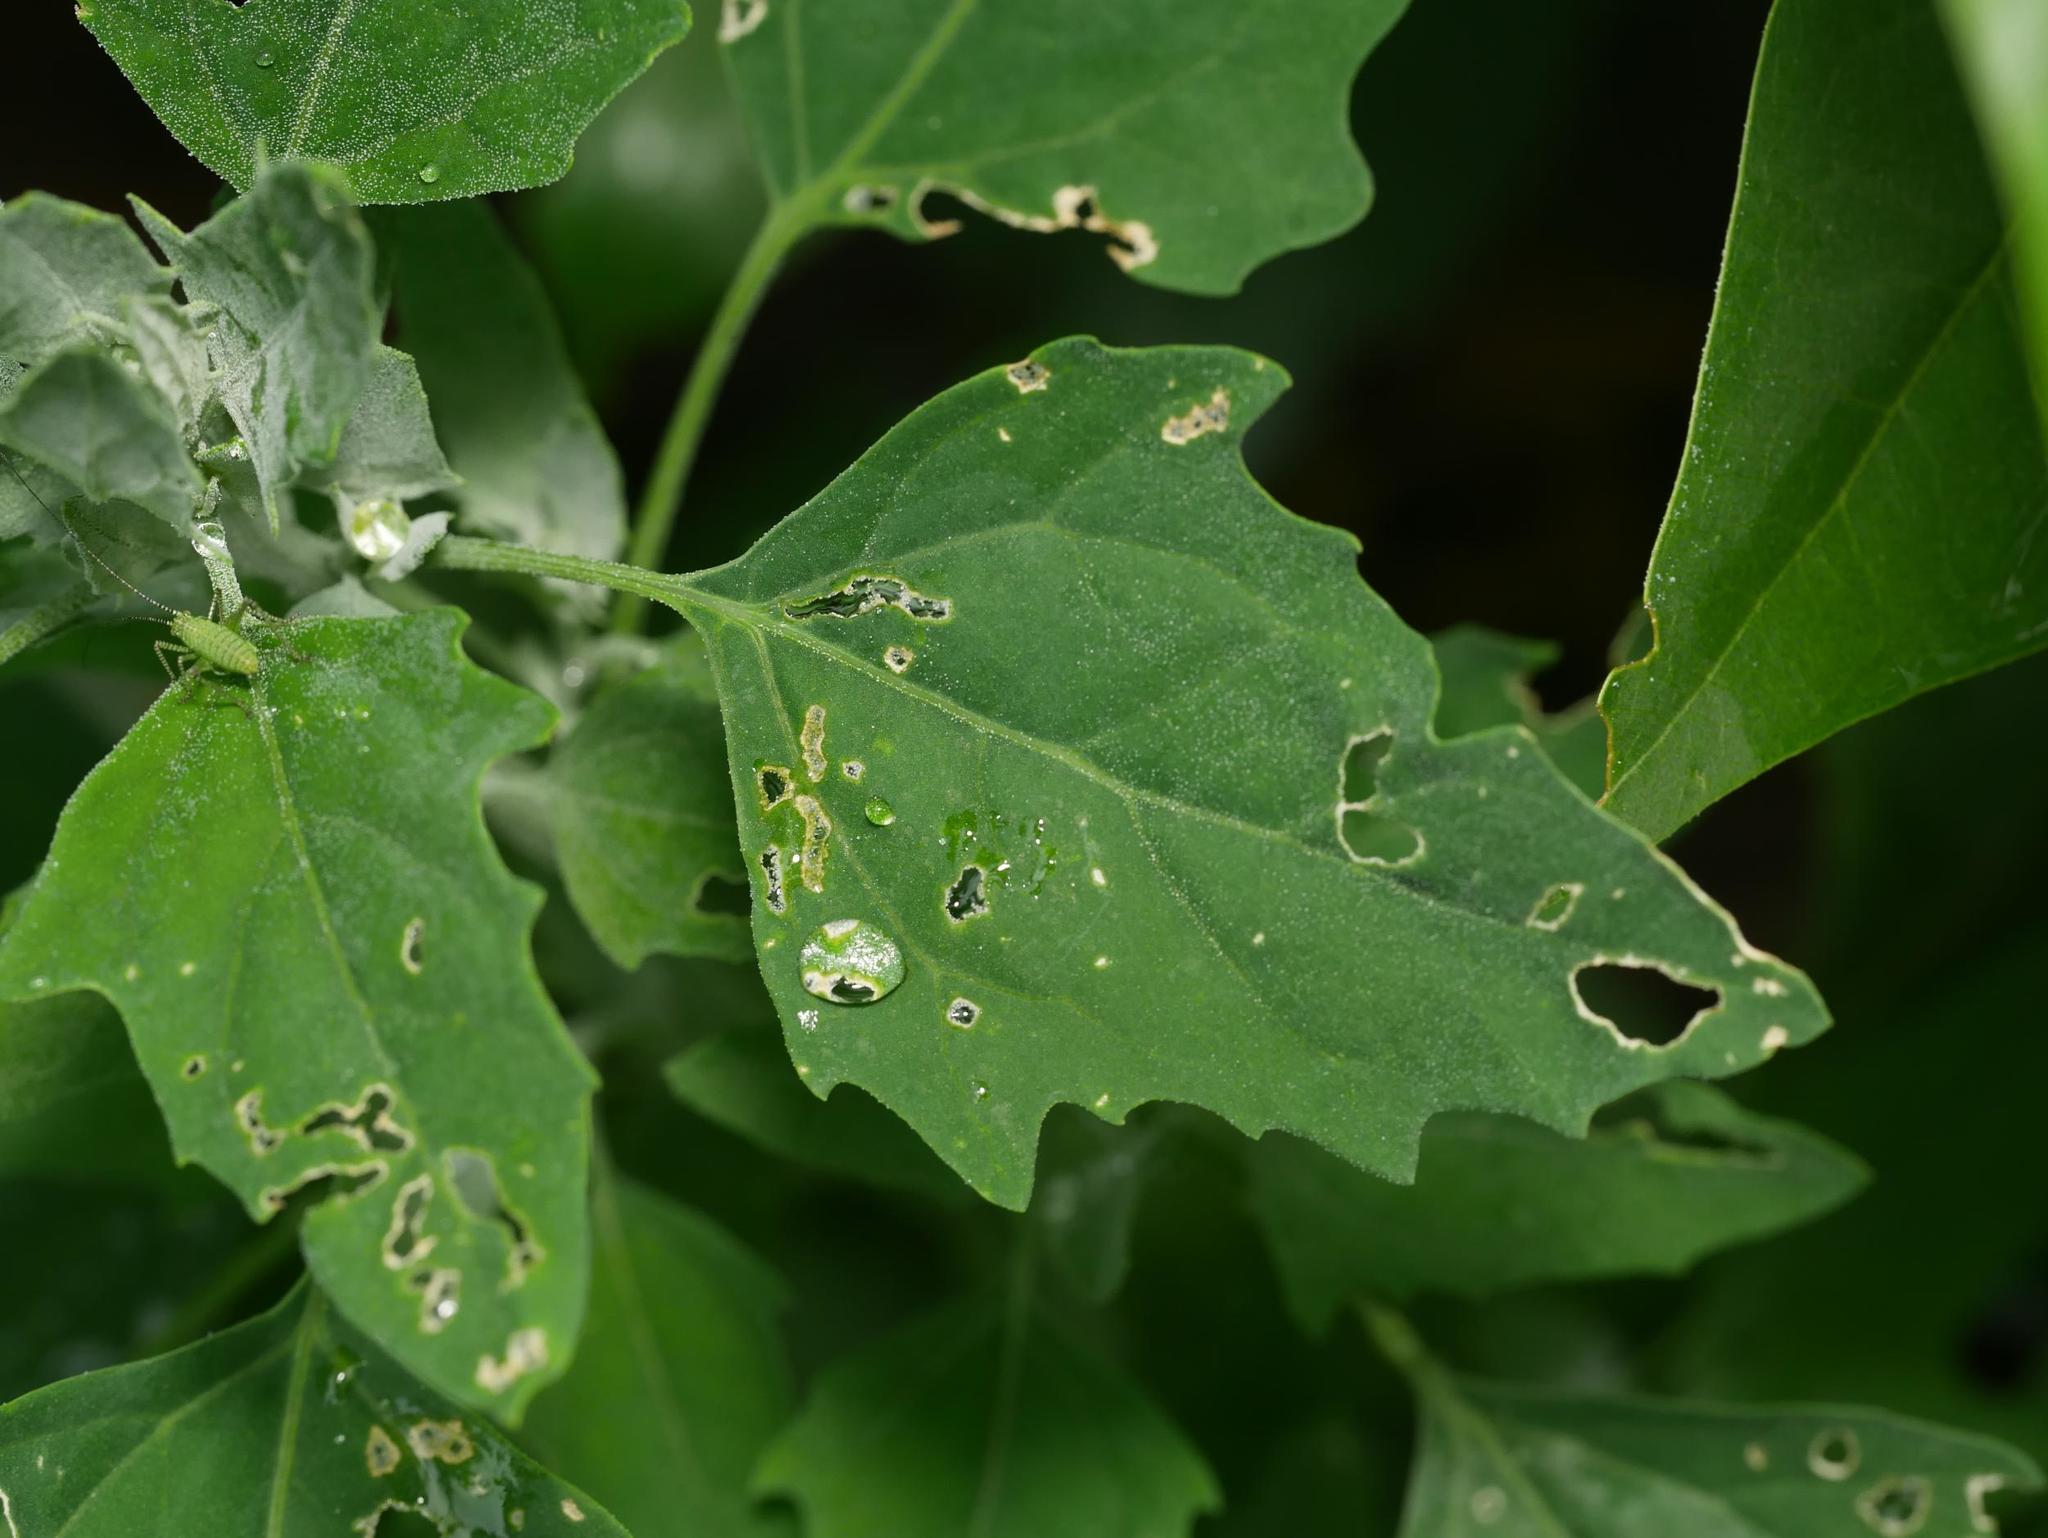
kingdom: Plantae
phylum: Tracheophyta
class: Magnoliopsida
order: Caryophyllales
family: Amaranthaceae
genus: Chenopodium
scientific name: Chenopodium album
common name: Fat-hen
